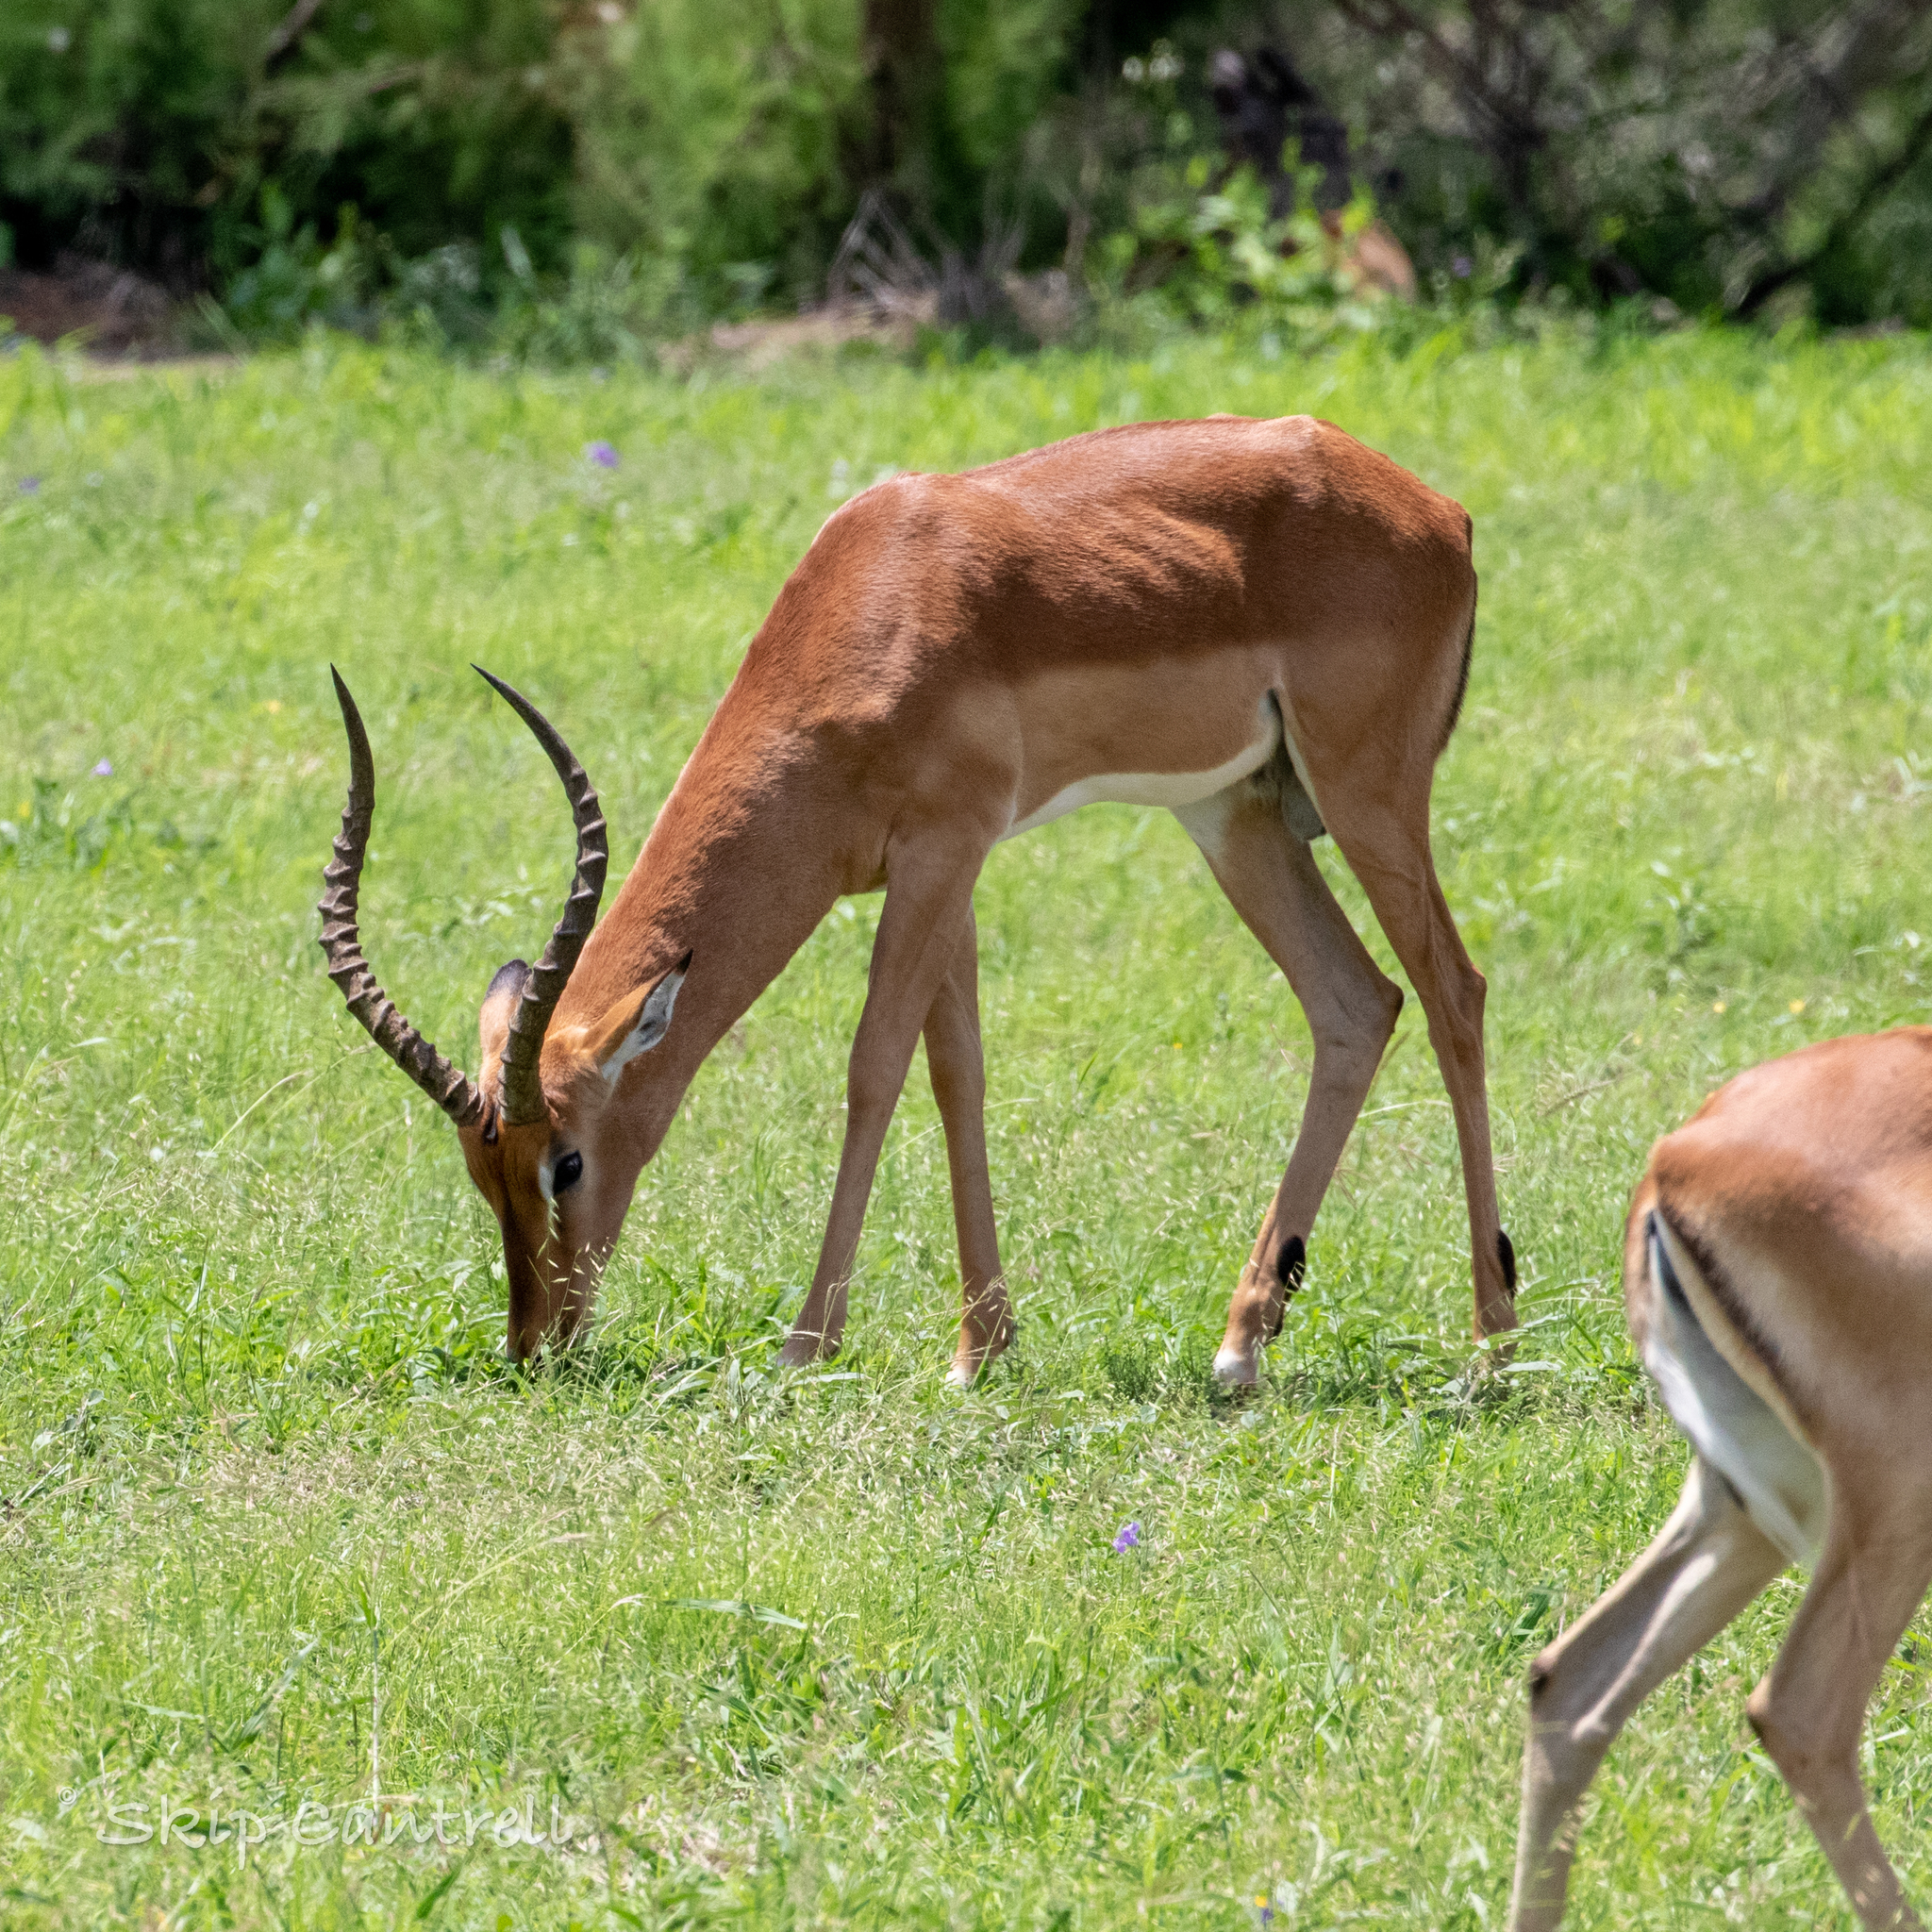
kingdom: Animalia
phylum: Chordata
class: Mammalia
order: Artiodactyla
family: Bovidae
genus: Aepyceros
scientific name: Aepyceros melampus
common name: Impala
